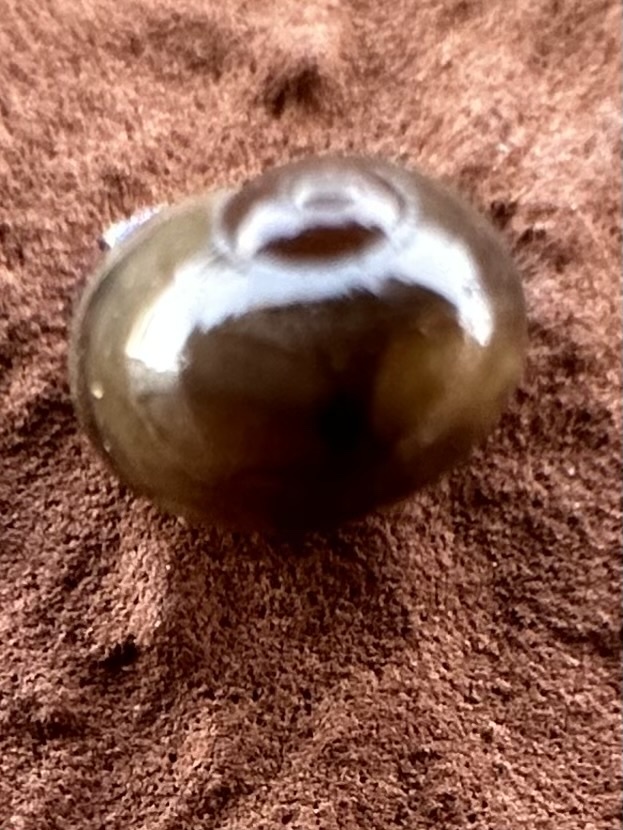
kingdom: Animalia
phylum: Mollusca
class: Gastropoda
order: Stylommatophora
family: Vitrinidae
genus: Vitrina
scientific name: Vitrina pellucida
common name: Pellucid glass snail
